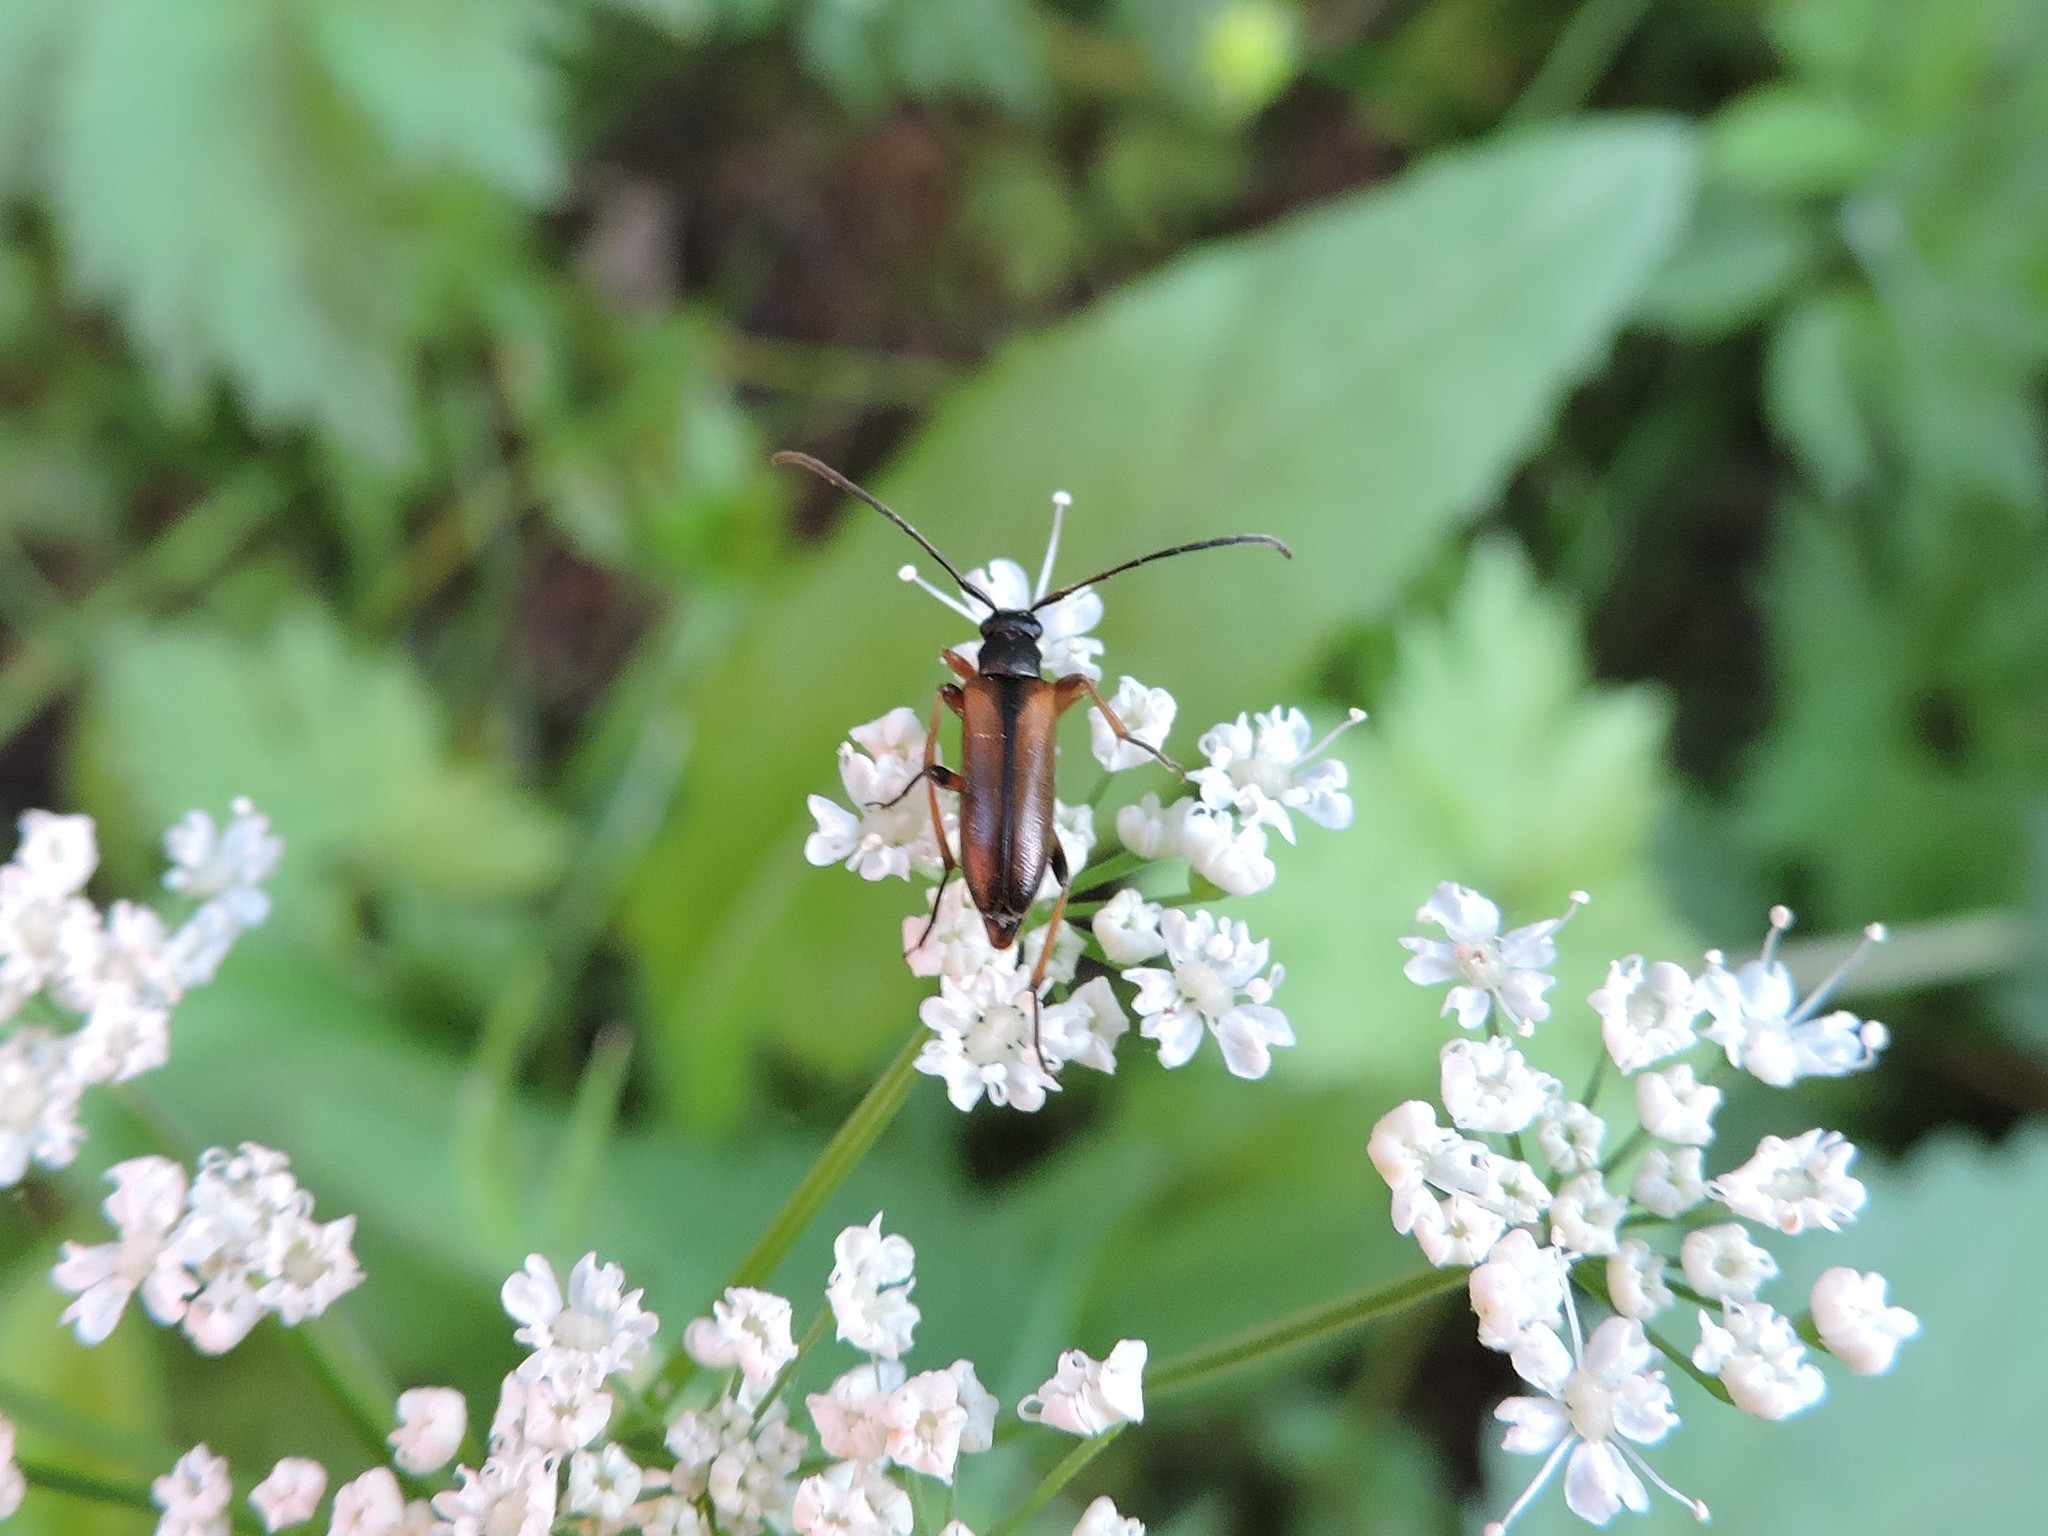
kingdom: Animalia
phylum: Arthropoda
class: Insecta
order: Coleoptera
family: Cerambycidae
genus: Alosterna
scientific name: Alosterna tabacicolor
